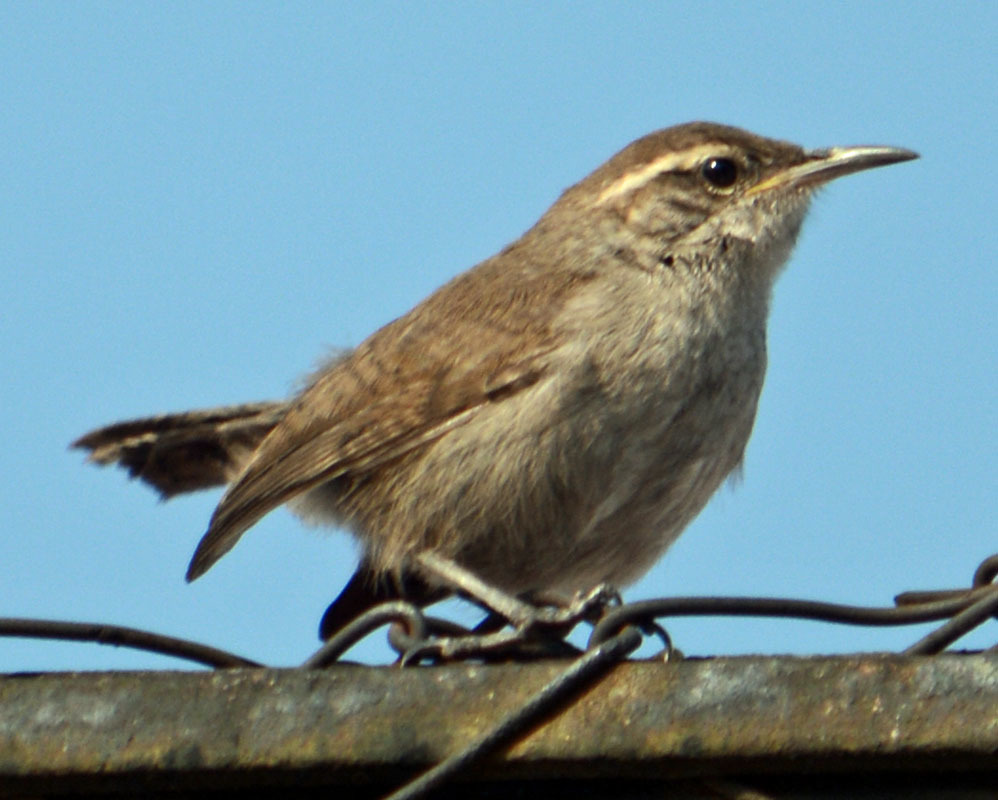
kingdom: Animalia
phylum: Chordata
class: Aves
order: Passeriformes
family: Troglodytidae
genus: Thryomanes
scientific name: Thryomanes bewickii
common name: Bewick's wren
